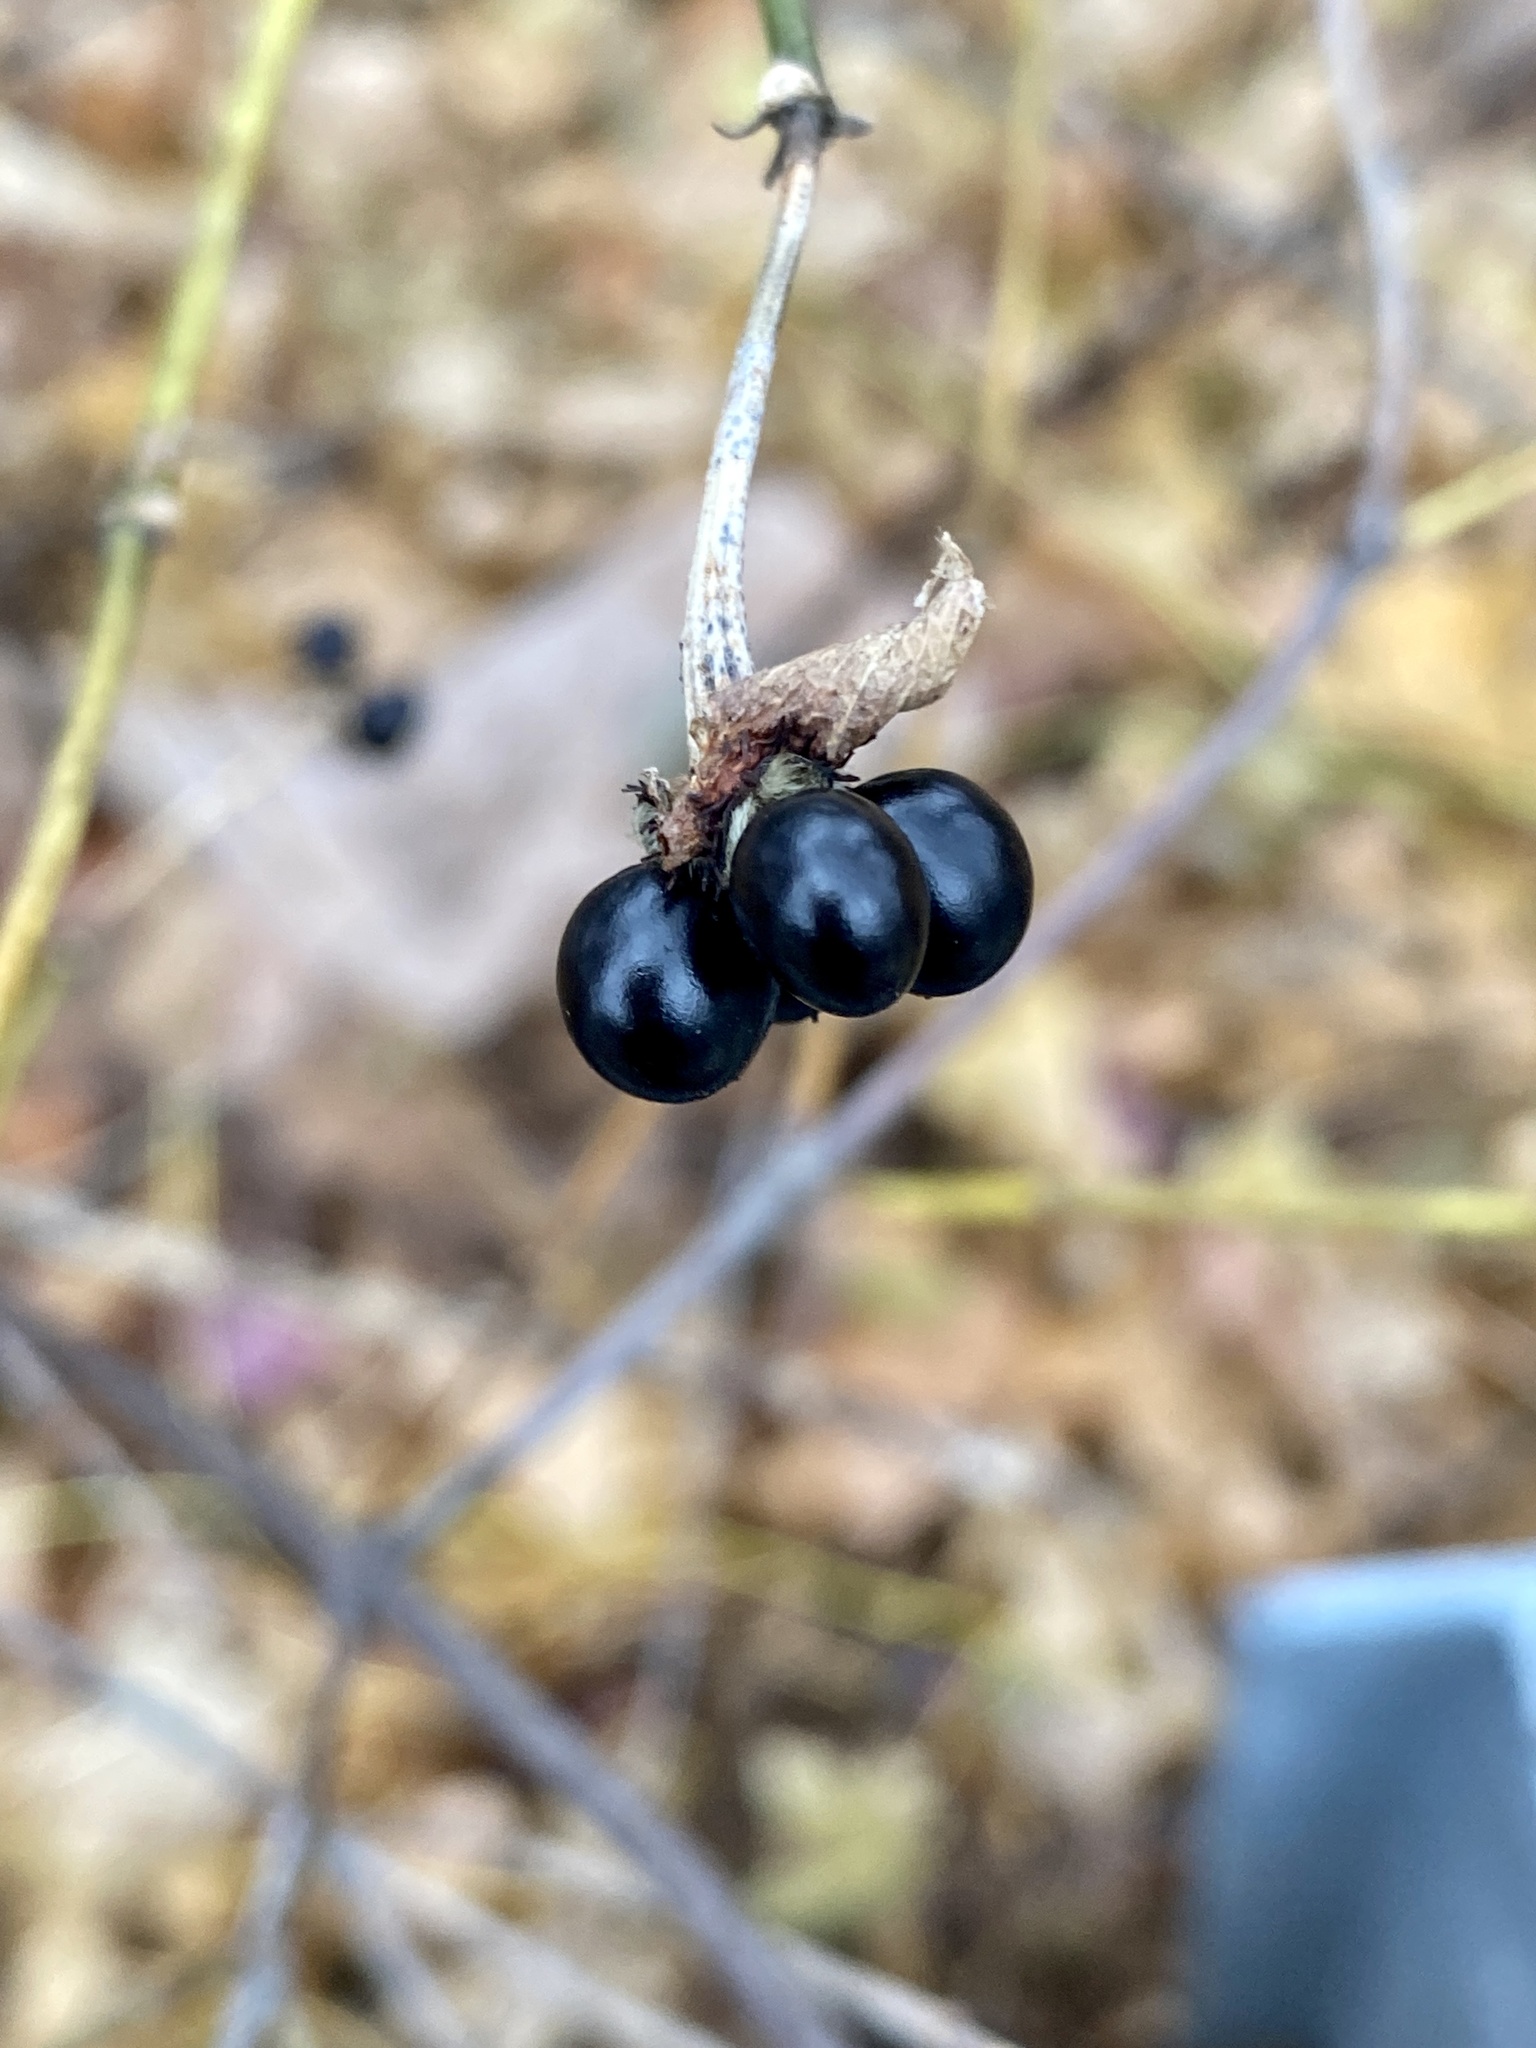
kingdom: Plantae
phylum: Tracheophyta
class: Magnoliopsida
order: Rosales
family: Rosaceae
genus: Rhodotypos
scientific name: Rhodotypos scandens
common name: Jetbead
